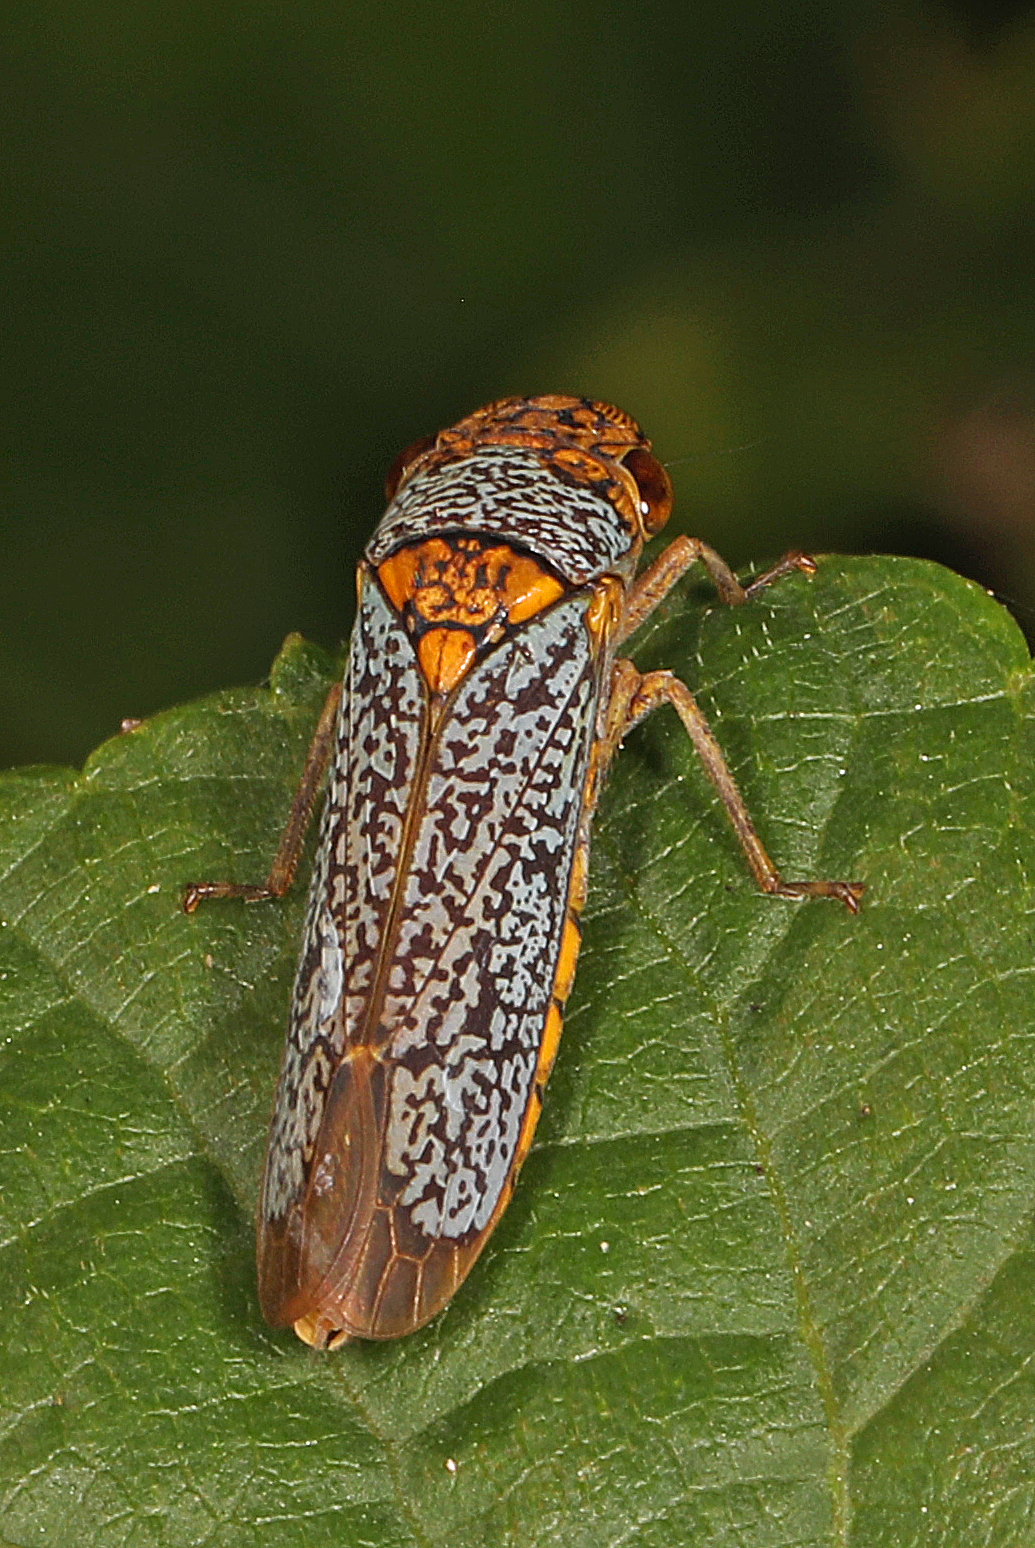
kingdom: Animalia
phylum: Arthropoda
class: Insecta
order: Hemiptera
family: Cicadellidae
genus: Oncometopia
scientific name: Oncometopia orbona
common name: Broad-headed sharpshooter
